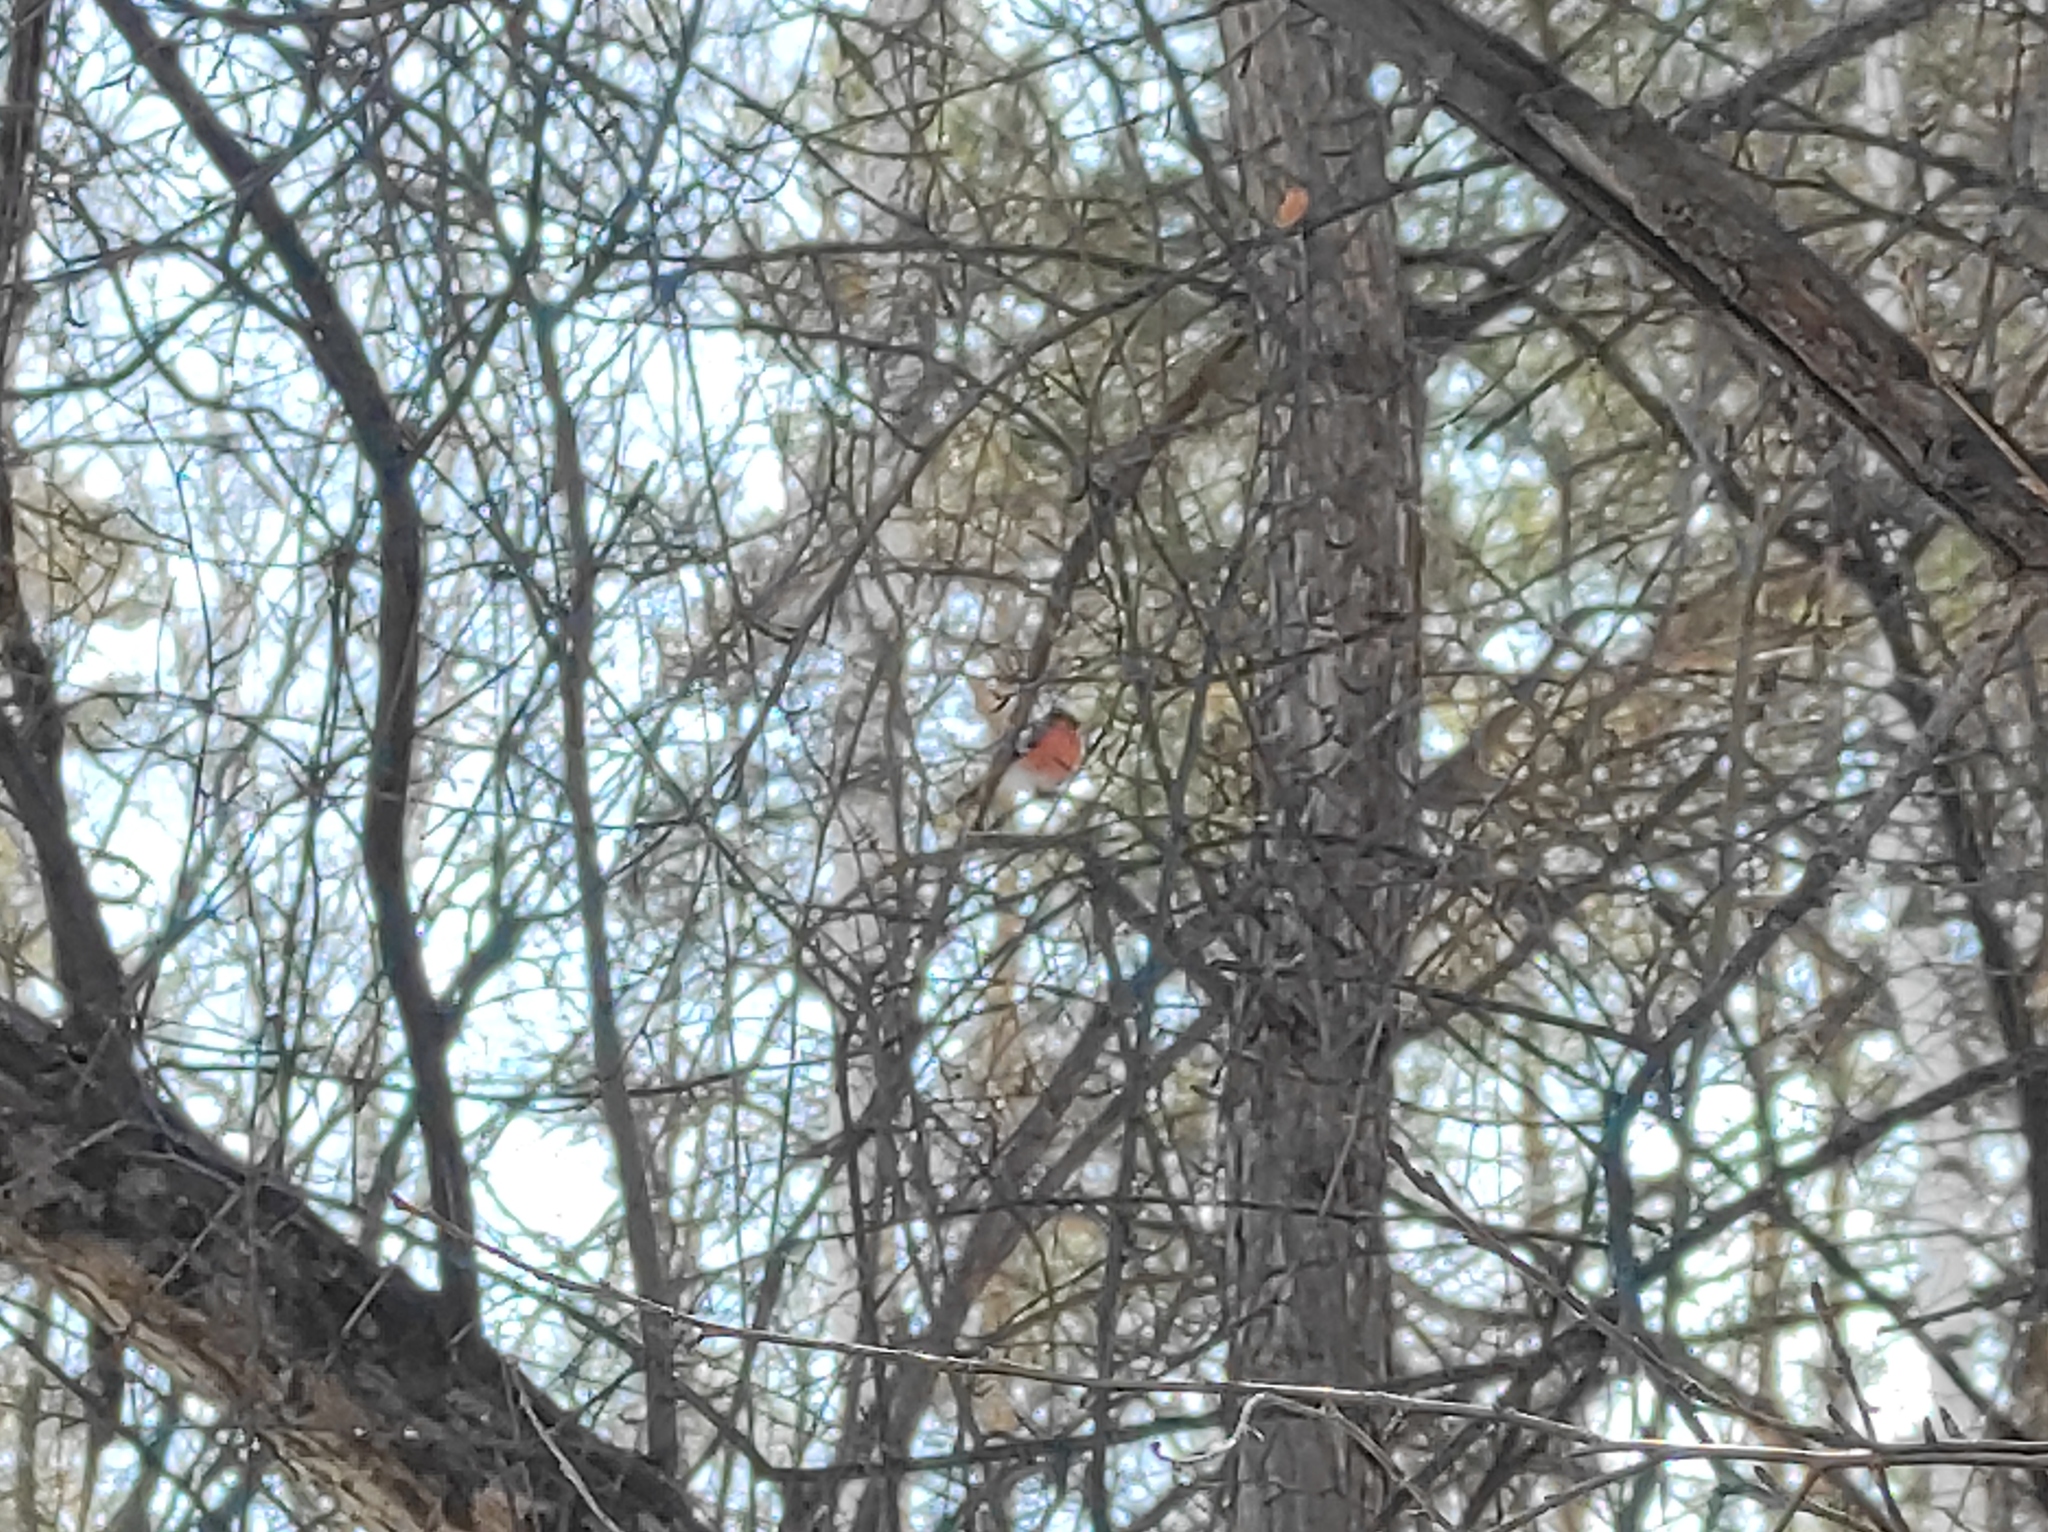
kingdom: Animalia
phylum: Chordata
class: Aves
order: Passeriformes
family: Fringillidae
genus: Pyrrhula
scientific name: Pyrrhula pyrrhula
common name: Eurasian bullfinch
